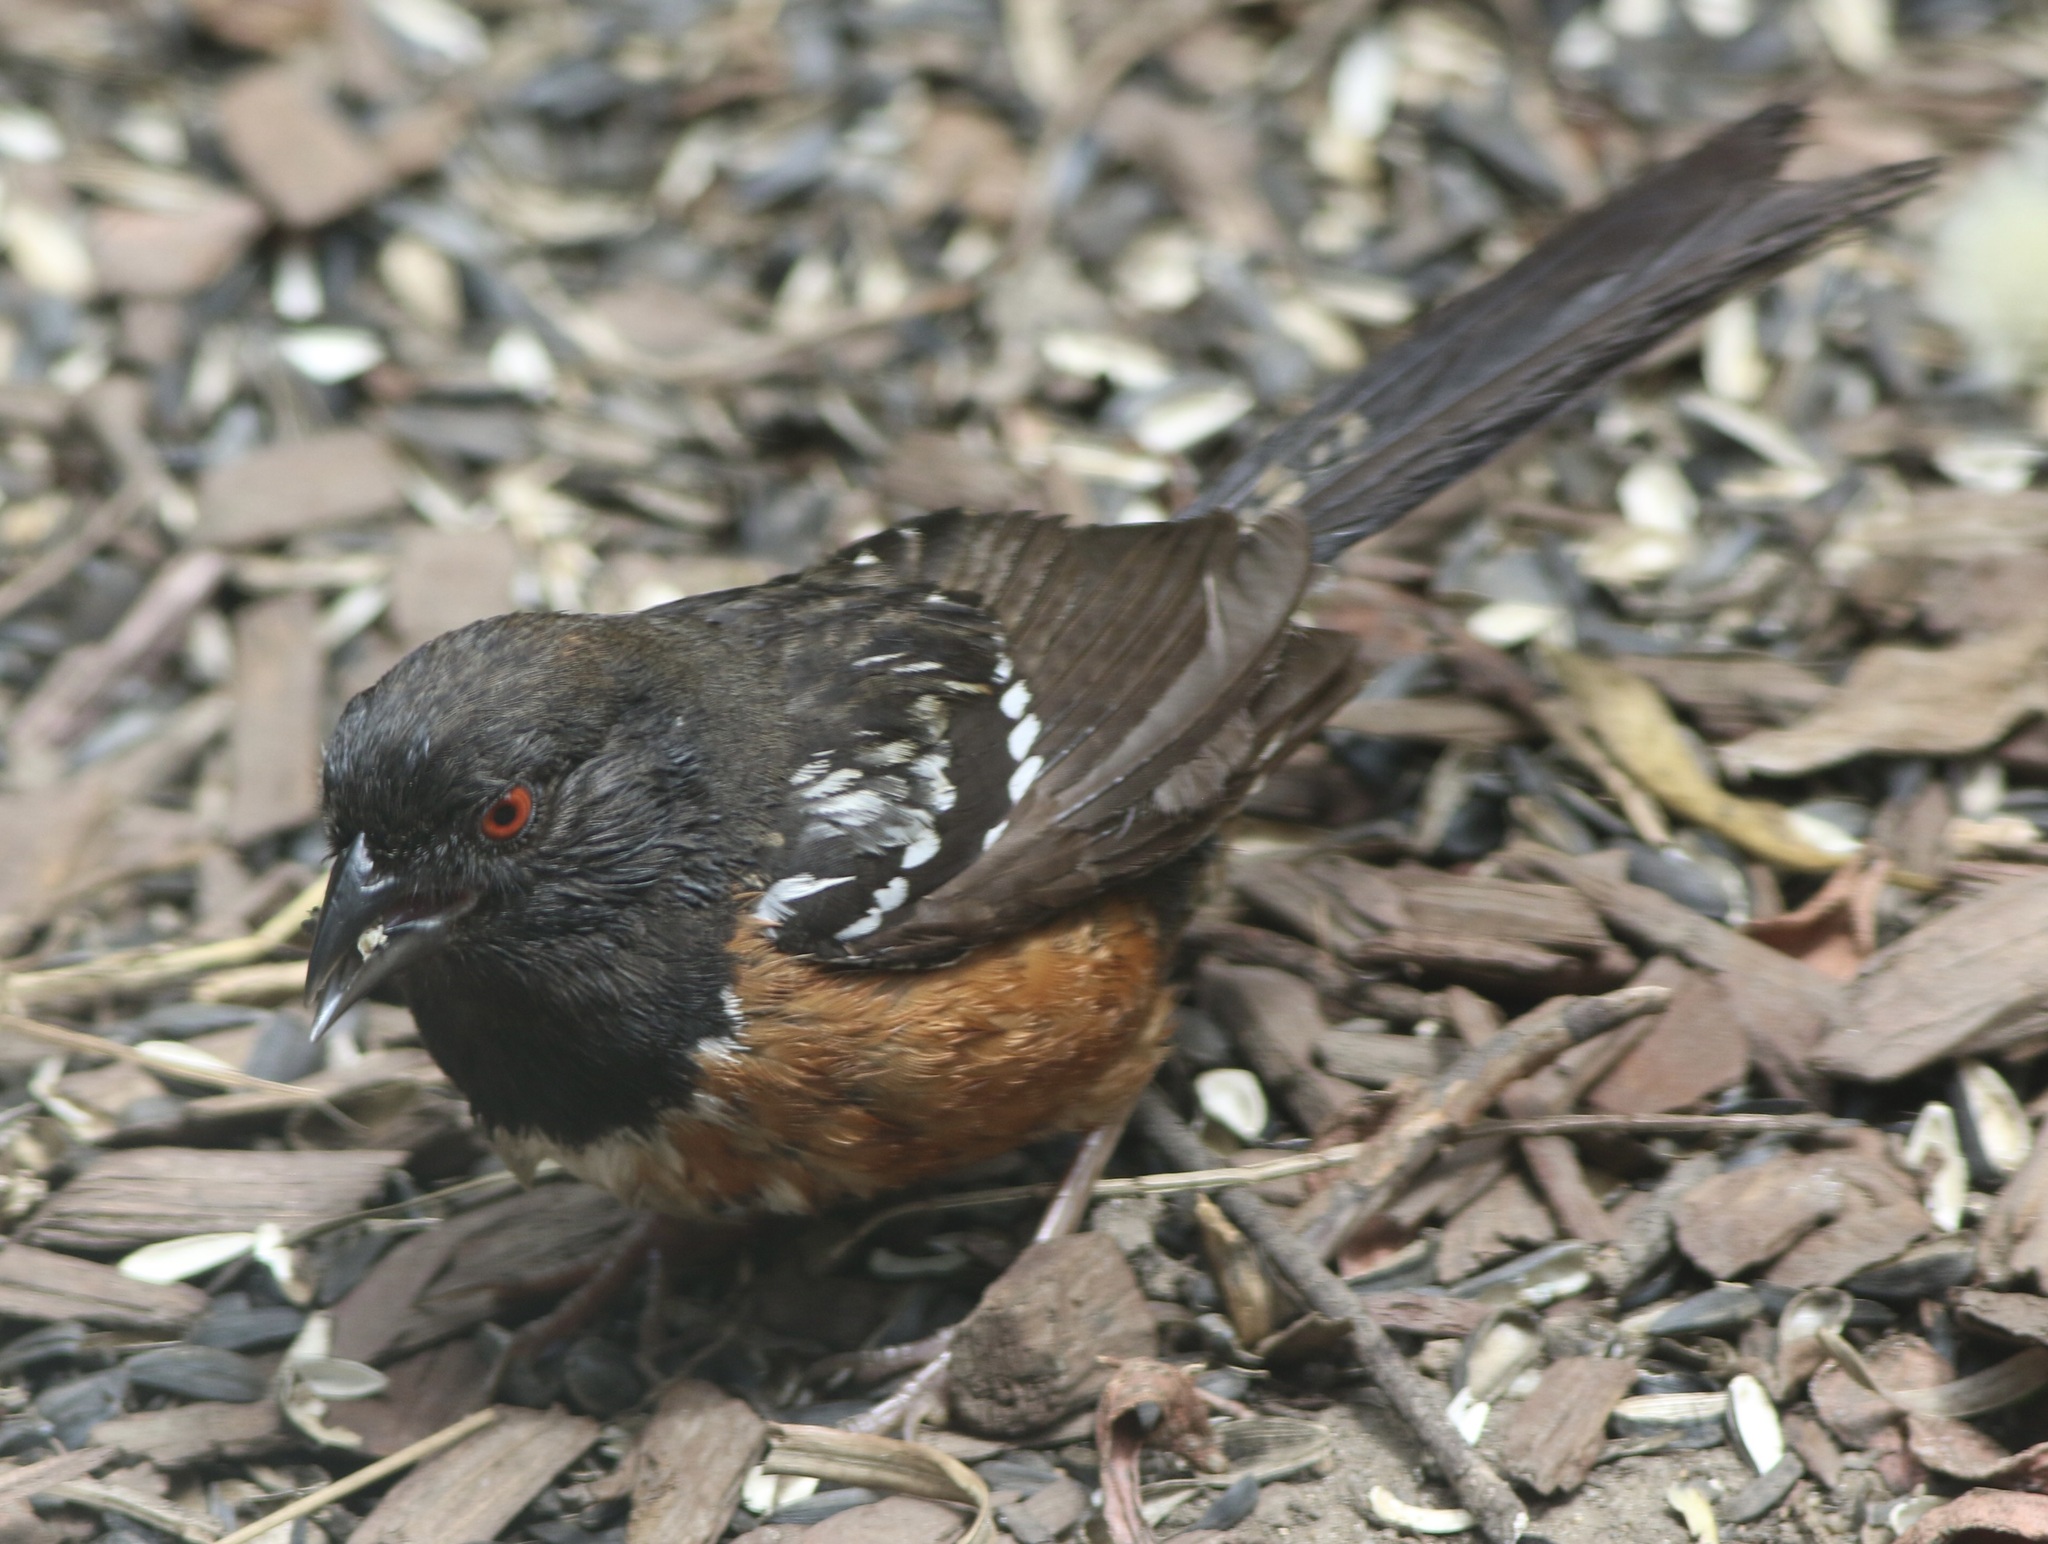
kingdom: Animalia
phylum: Chordata
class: Aves
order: Passeriformes
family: Passerellidae
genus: Pipilo
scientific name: Pipilo maculatus
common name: Spotted towhee
